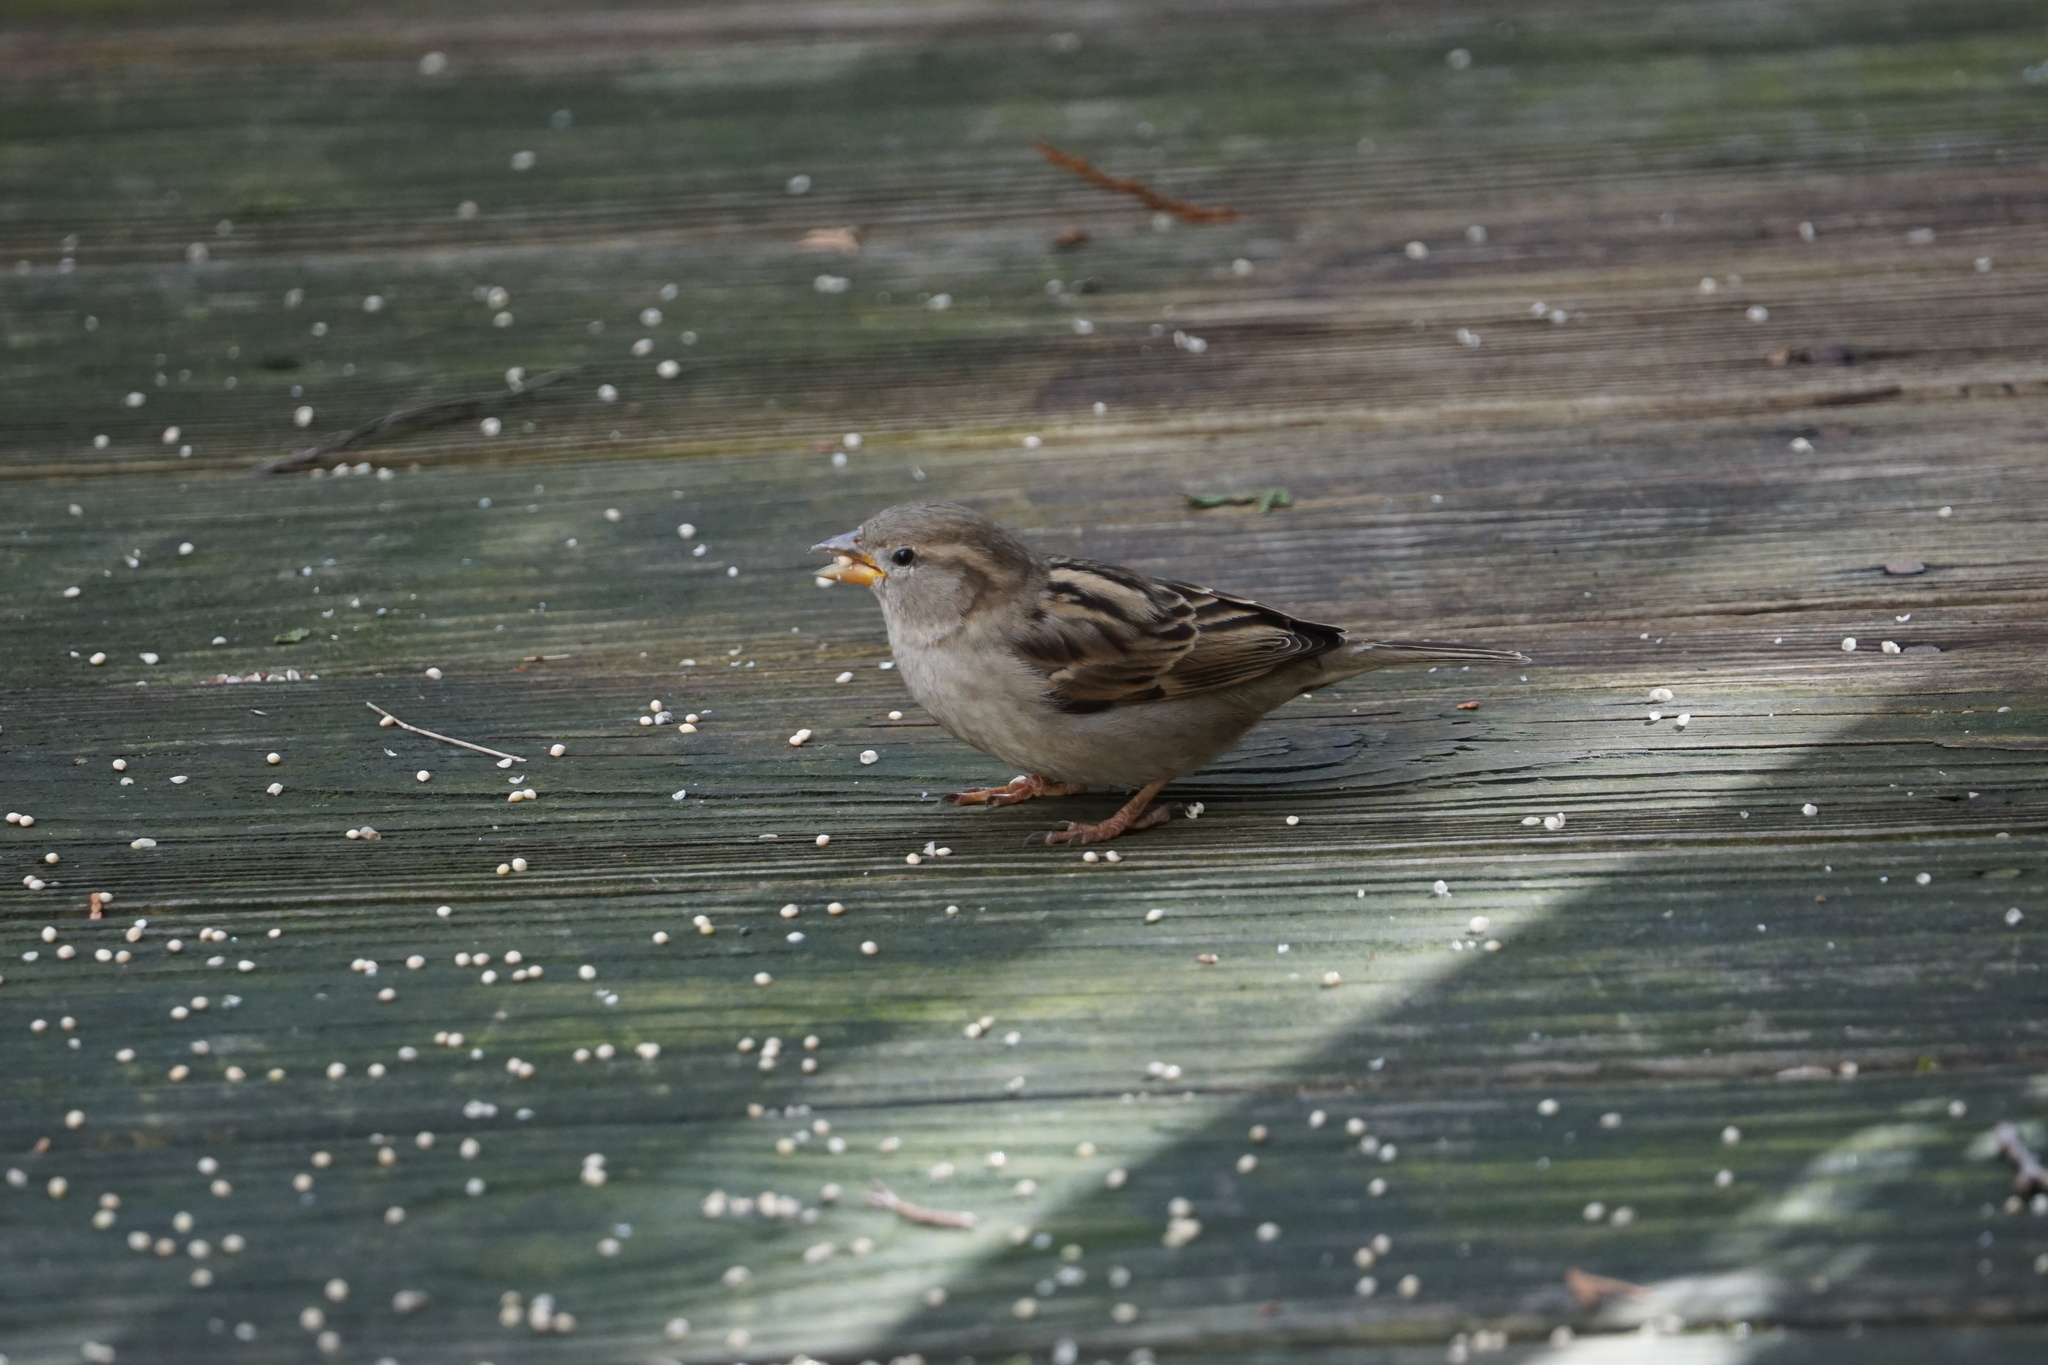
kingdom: Animalia
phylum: Chordata
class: Aves
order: Passeriformes
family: Passeridae
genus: Passer
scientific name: Passer domesticus
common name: House sparrow
